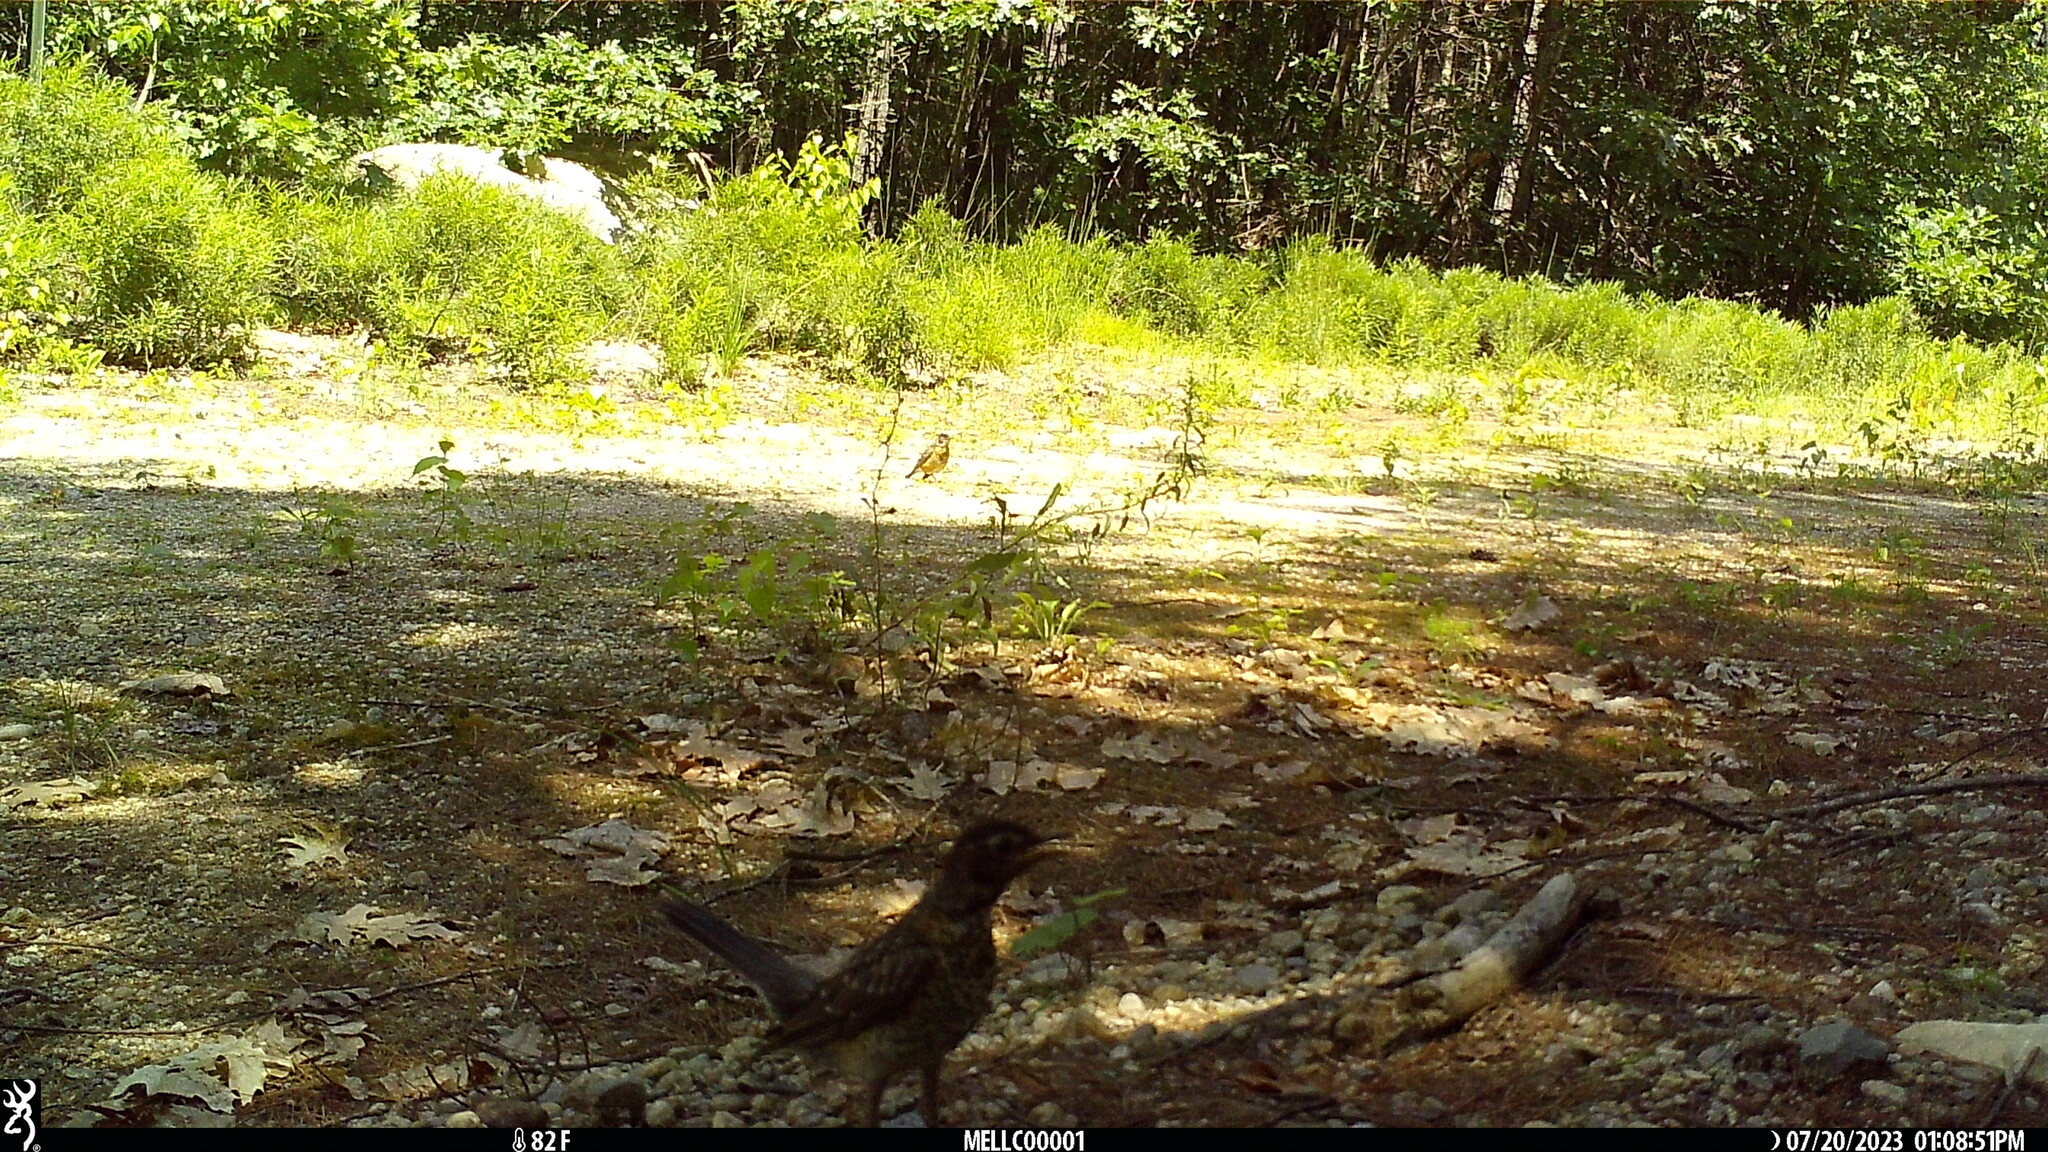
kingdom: Animalia
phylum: Chordata
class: Aves
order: Passeriformes
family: Turdidae
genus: Turdus
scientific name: Turdus migratorius
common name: American robin
